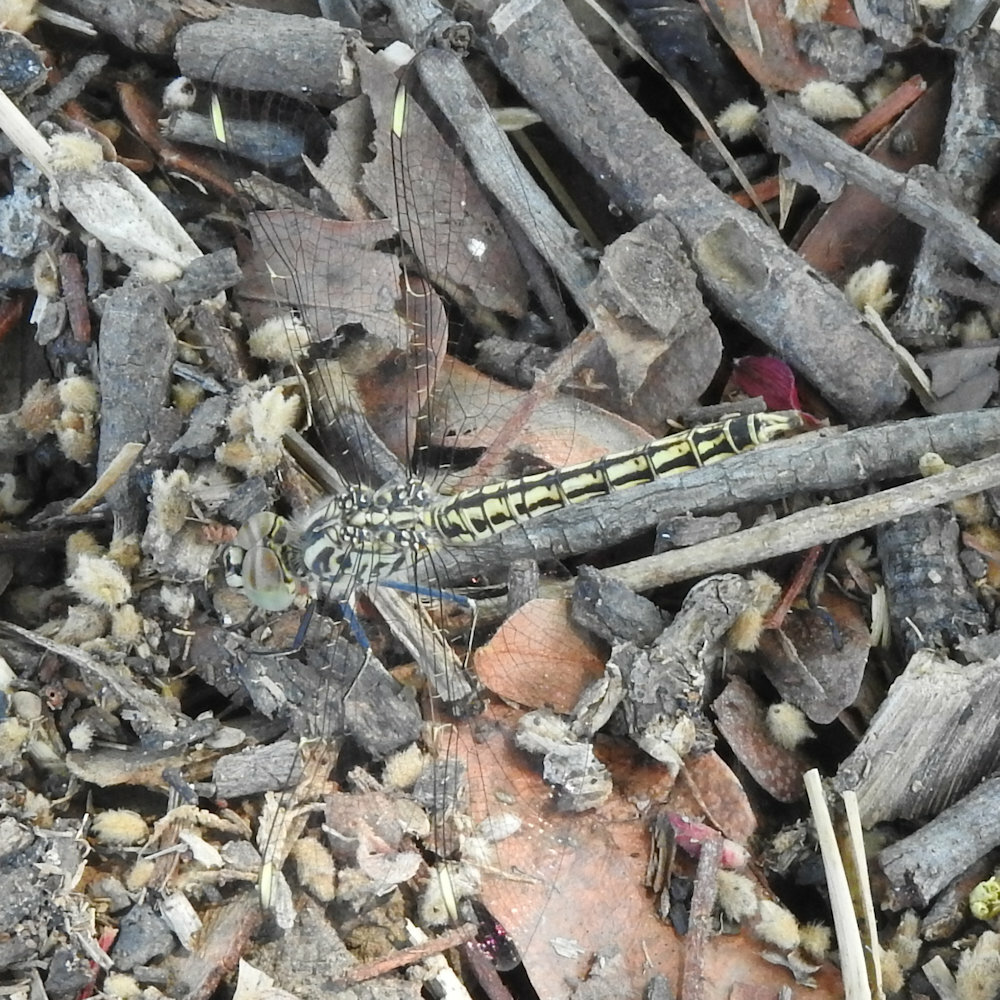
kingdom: Animalia
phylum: Arthropoda
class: Insecta
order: Odonata
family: Libellulidae
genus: Brachythemis
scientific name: Brachythemis leucosticta
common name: Banded groundling
